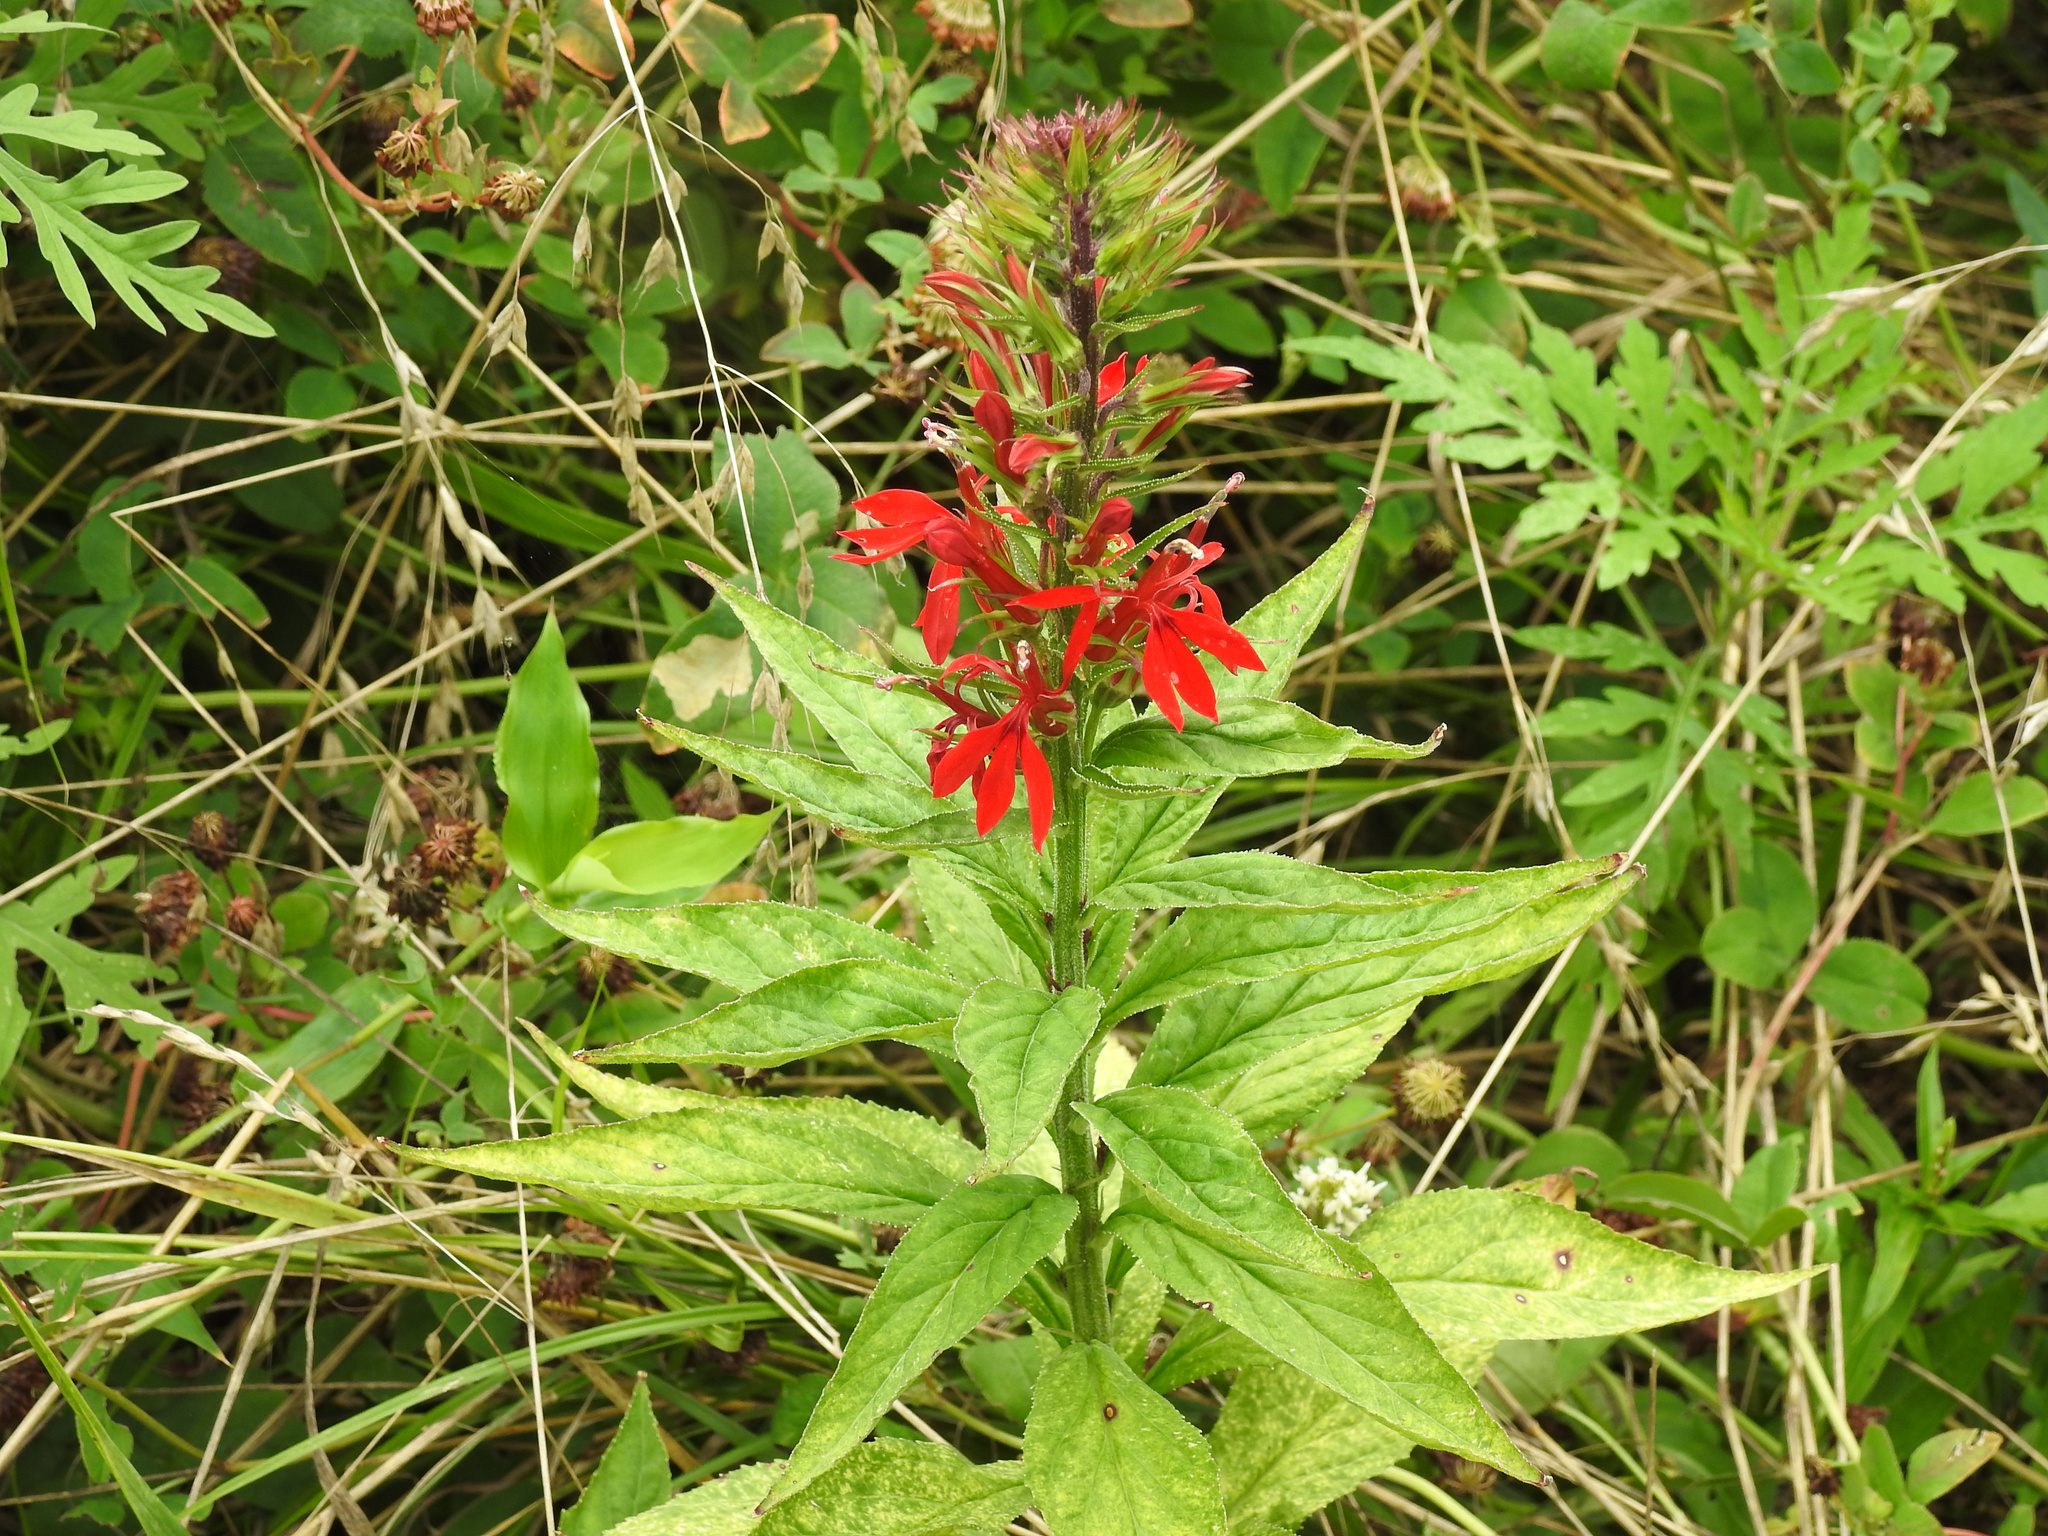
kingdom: Plantae
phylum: Tracheophyta
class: Magnoliopsida
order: Asterales
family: Campanulaceae
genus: Lobelia
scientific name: Lobelia cardinalis
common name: Cardinal flower
